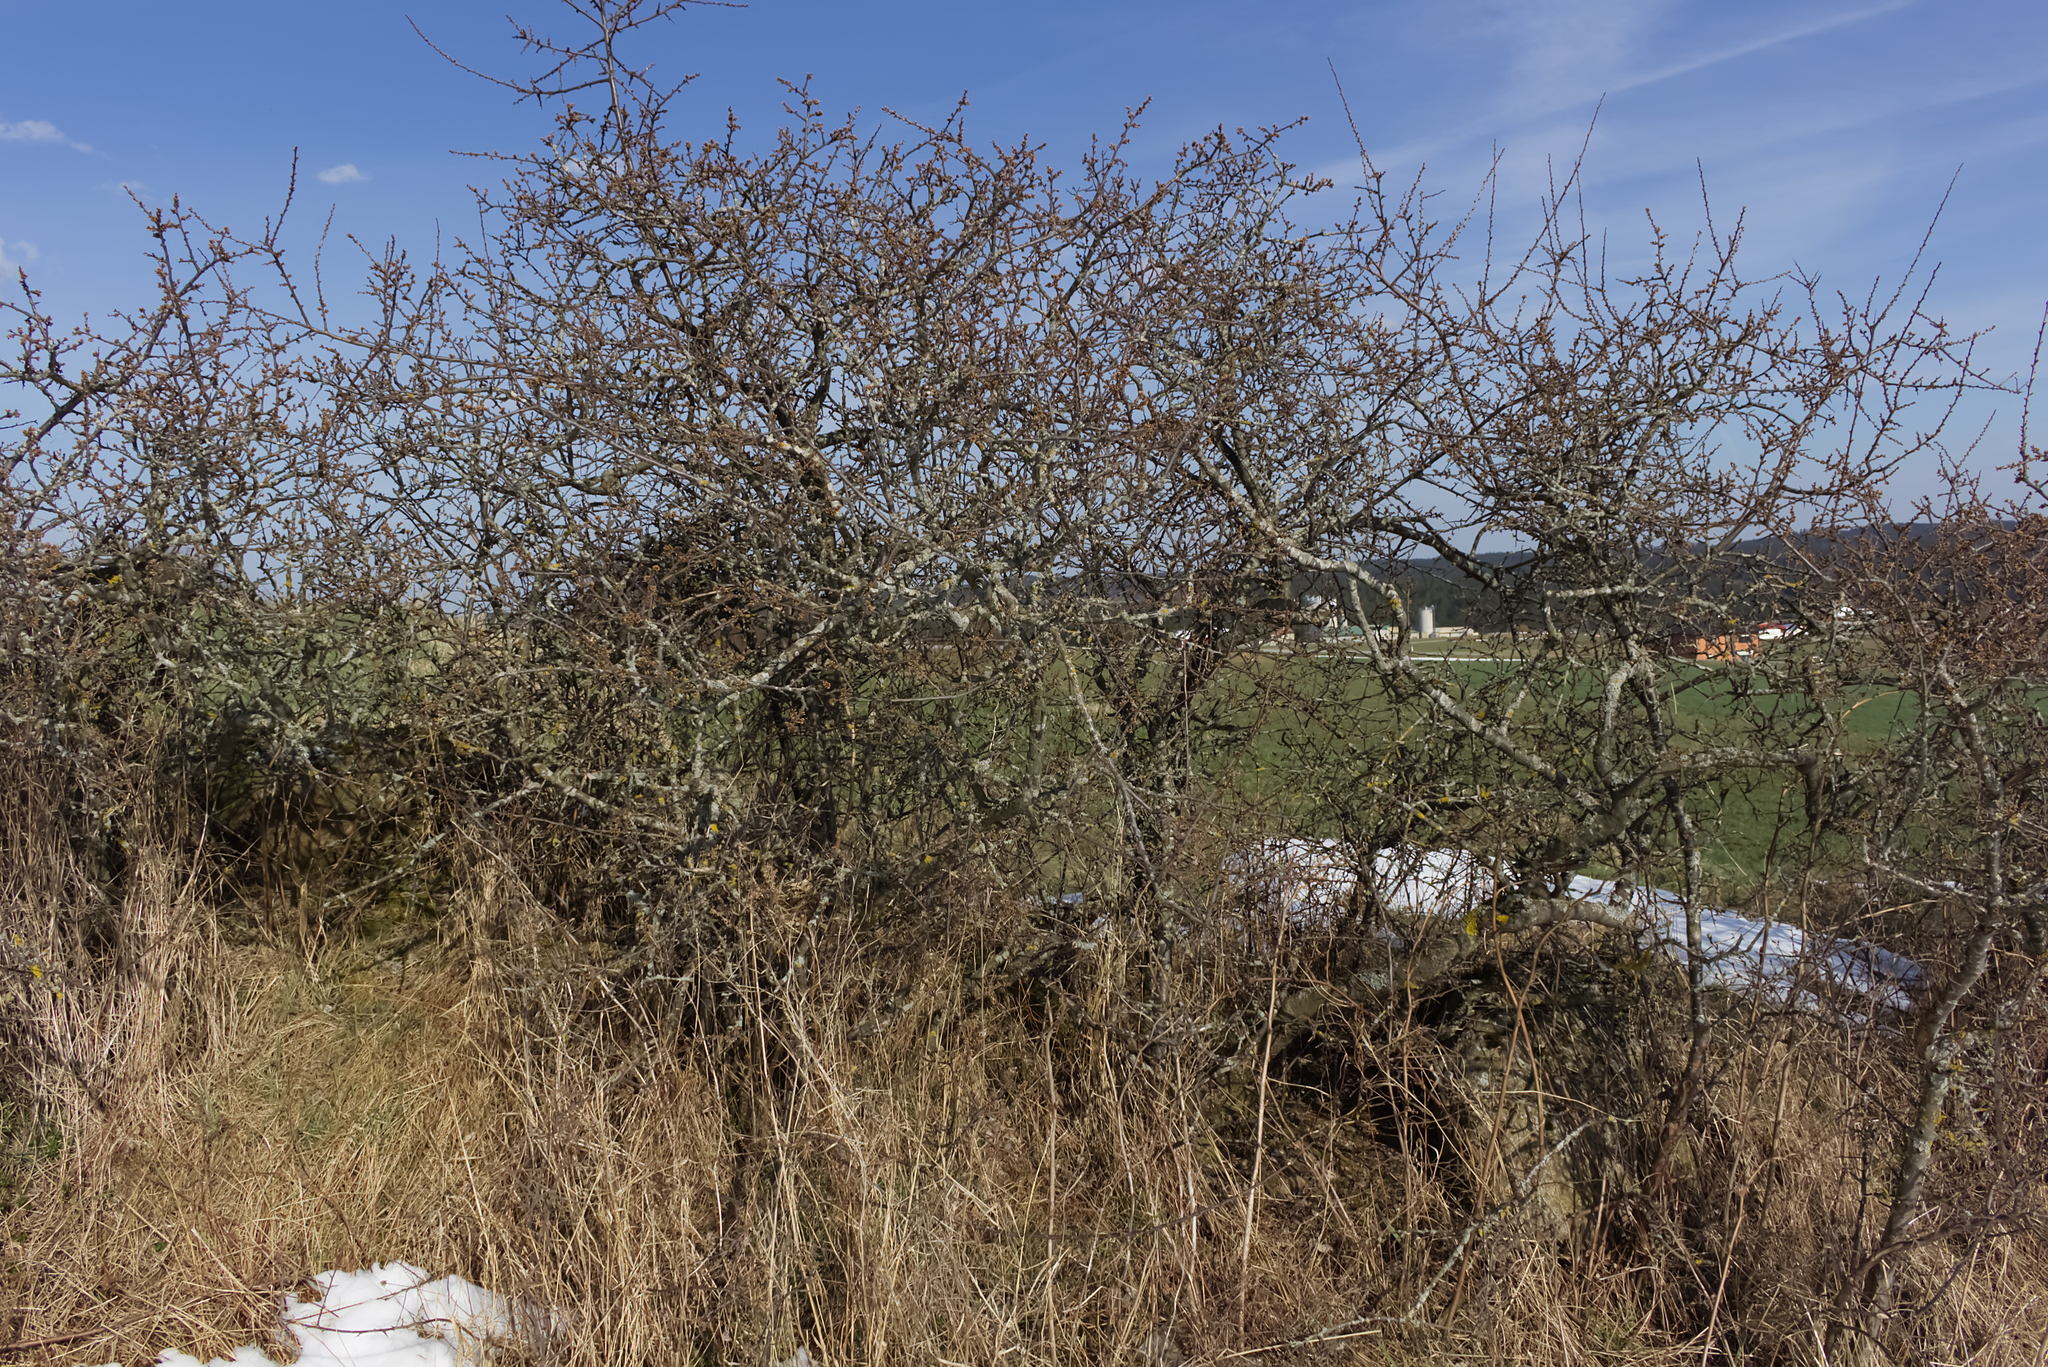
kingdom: Plantae
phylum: Tracheophyta
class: Magnoliopsida
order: Rosales
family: Rosaceae
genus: Prunus
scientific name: Prunus spinosa
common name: Blackthorn
